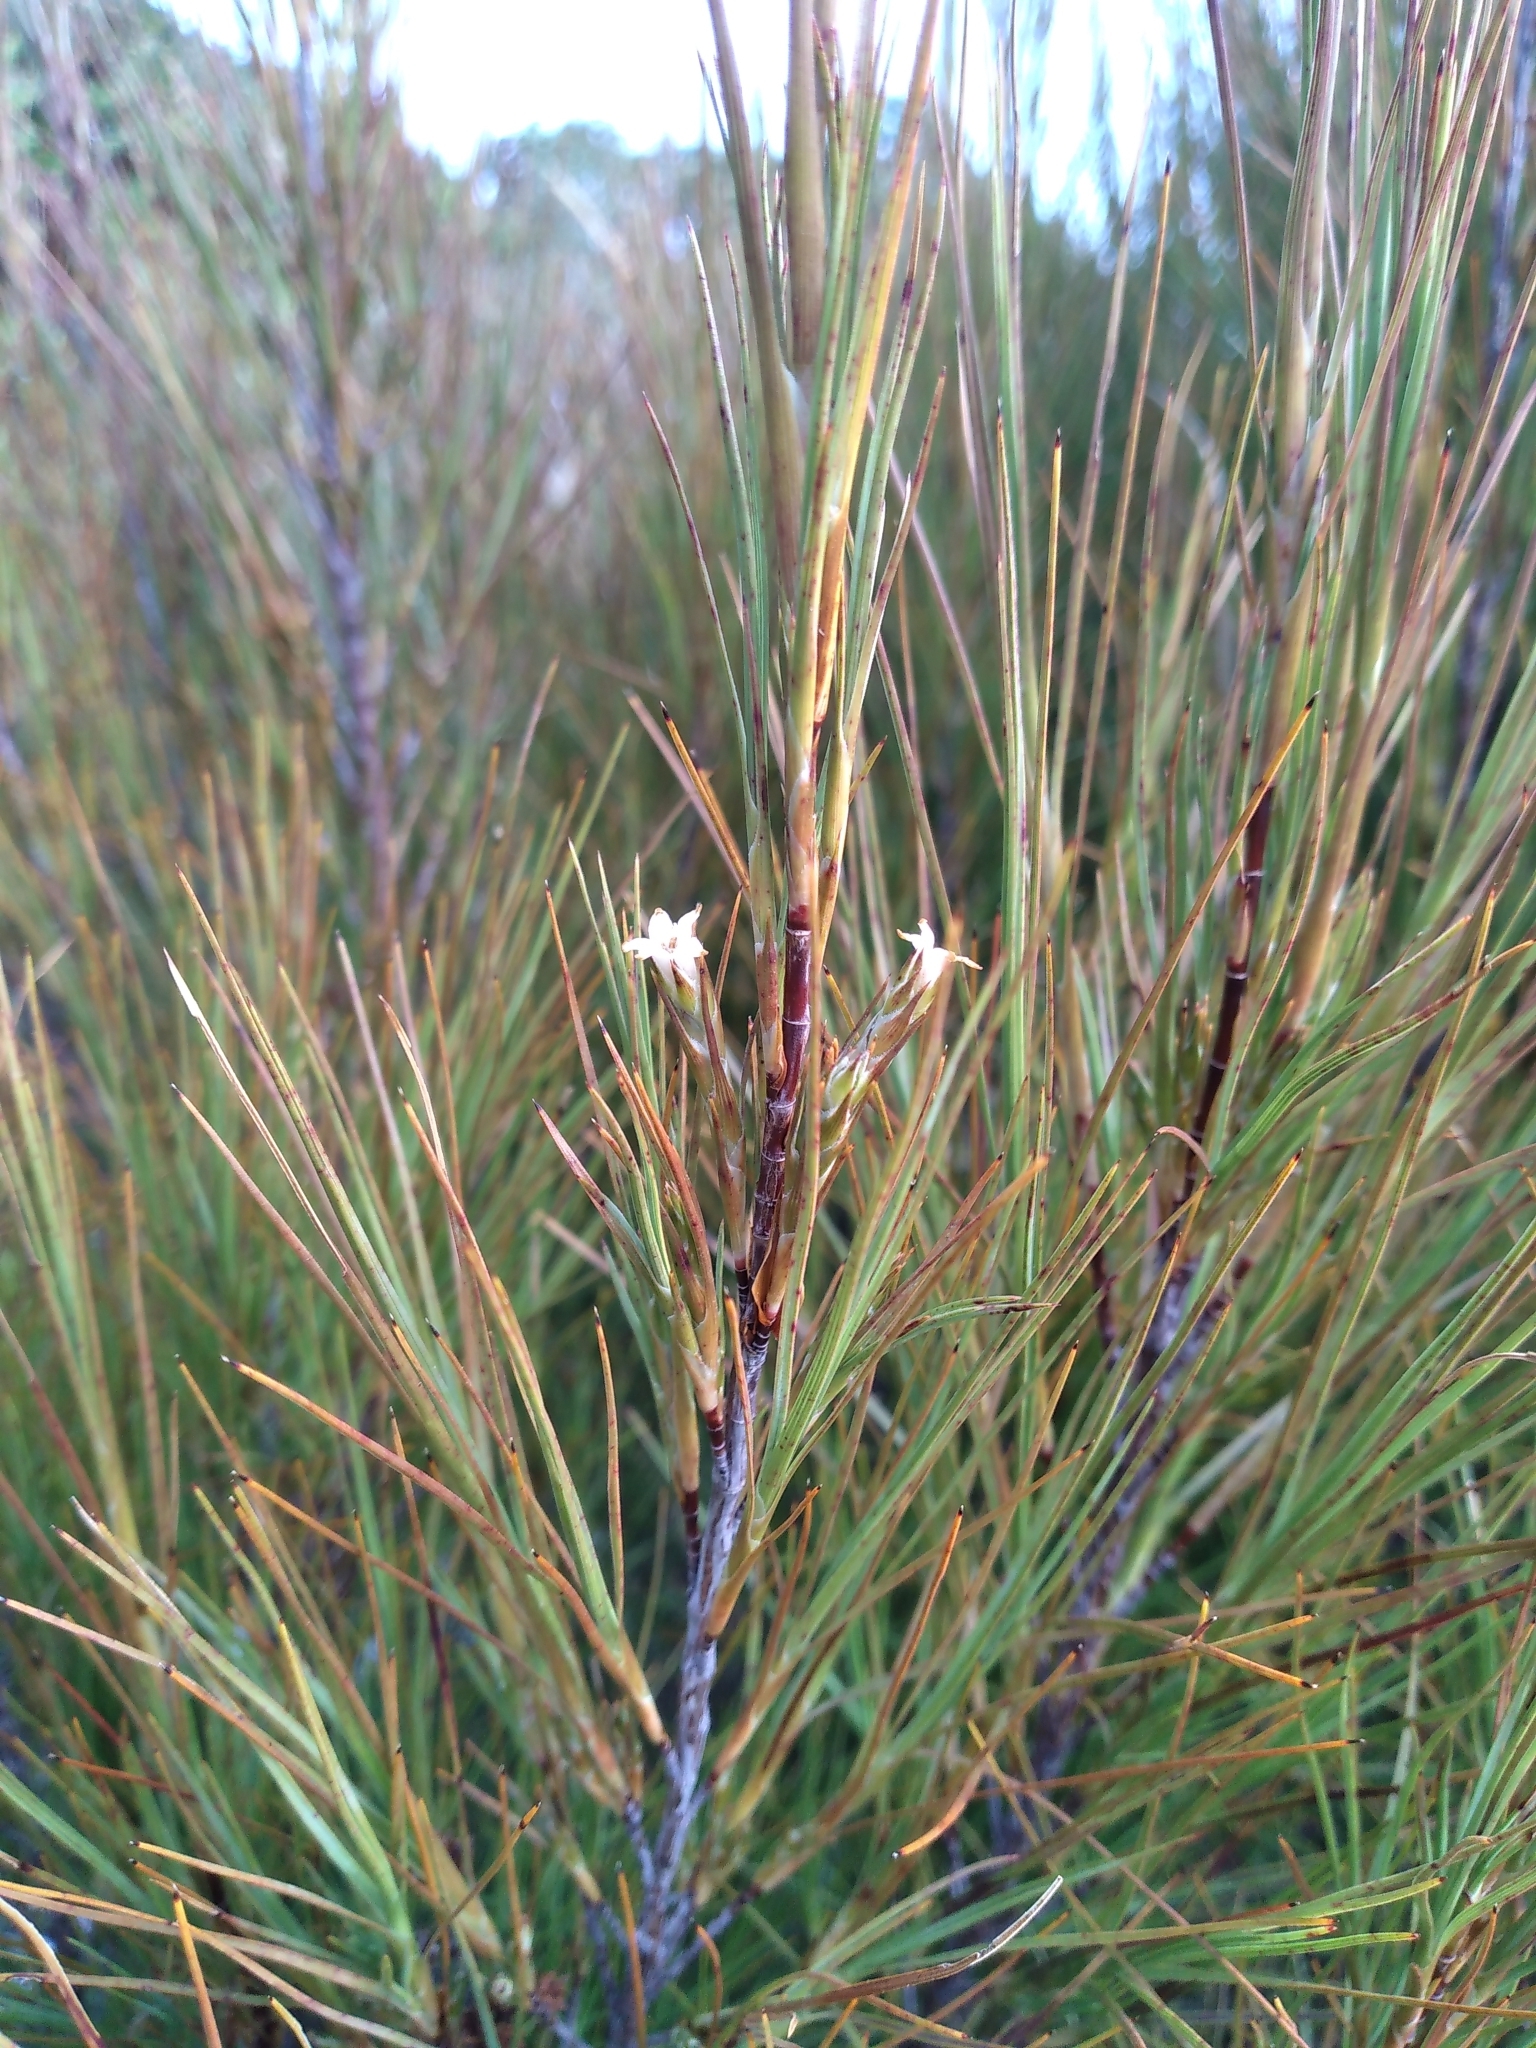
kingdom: Plantae
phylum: Tracheophyta
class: Magnoliopsida
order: Ericales
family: Ericaceae
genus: Dracophyllum
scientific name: Dracophyllum filifolium
